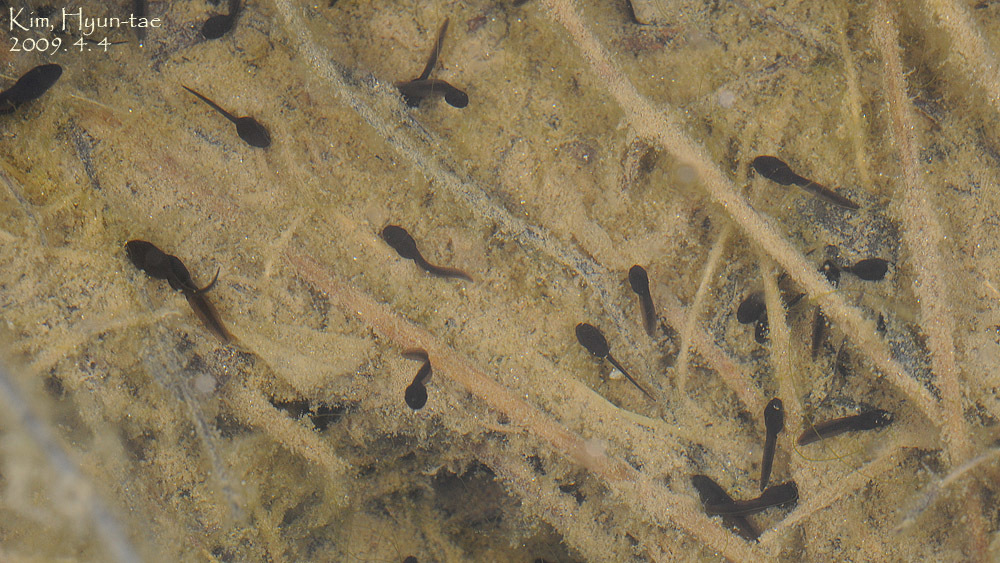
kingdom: Animalia
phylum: Chordata
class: Amphibia
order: Anura
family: Bufonidae
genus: Bufo
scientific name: Bufo gargarizans
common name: Asiatic toad
